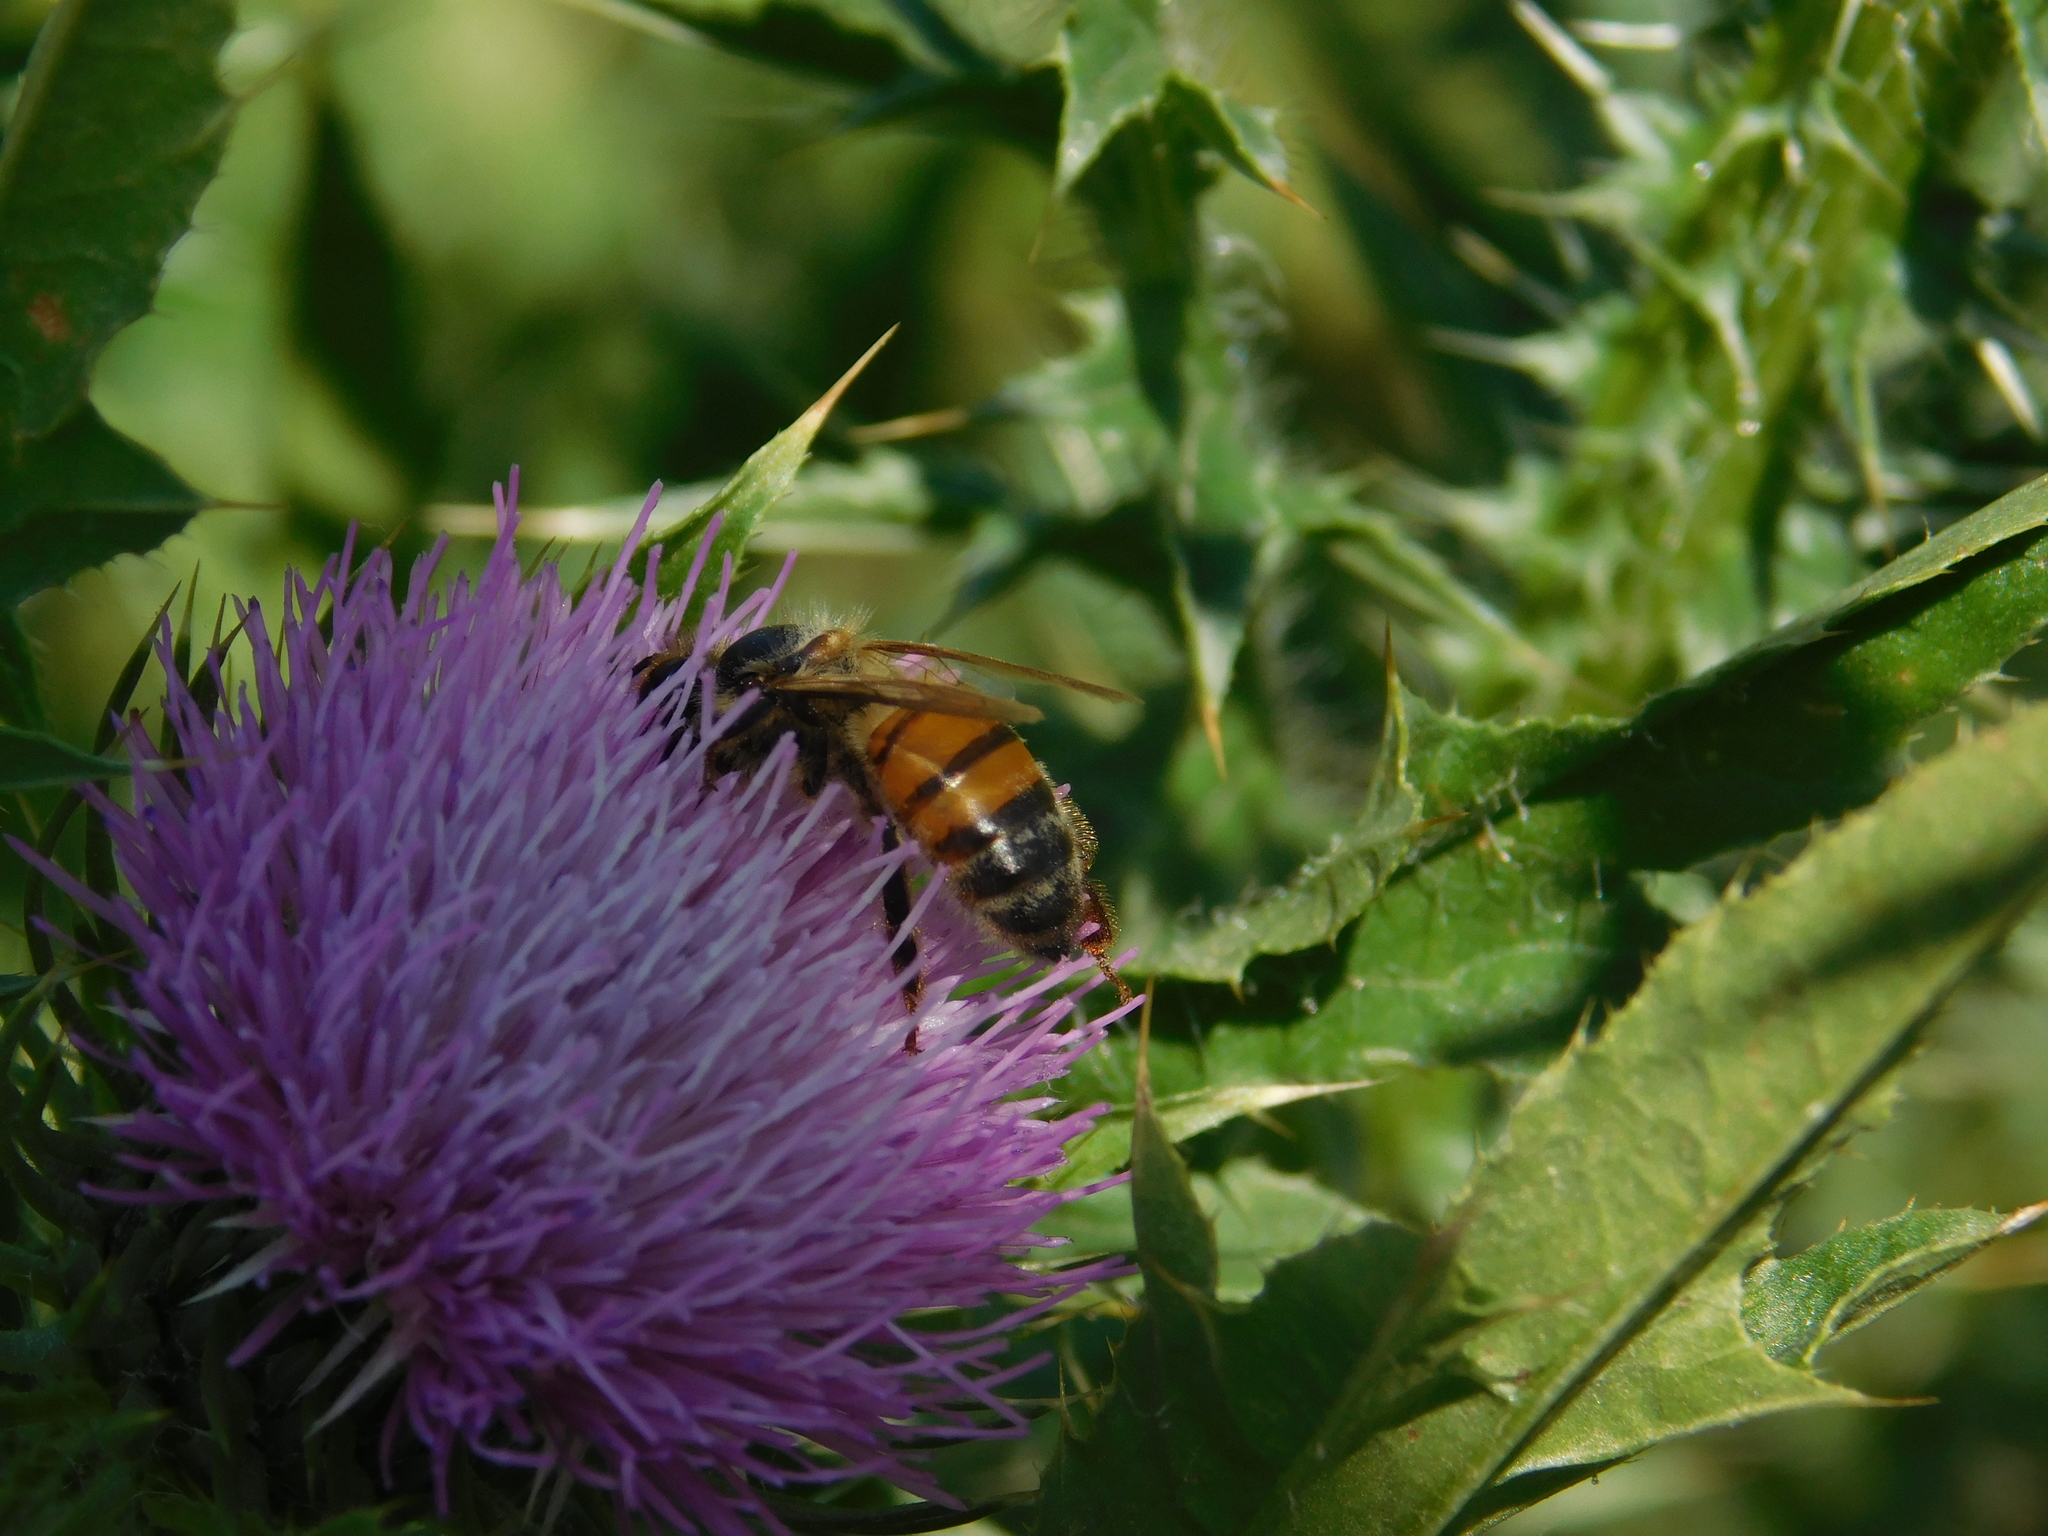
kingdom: Animalia
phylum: Arthropoda
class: Insecta
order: Hymenoptera
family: Apidae
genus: Apis
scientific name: Apis mellifera
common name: Honey bee
